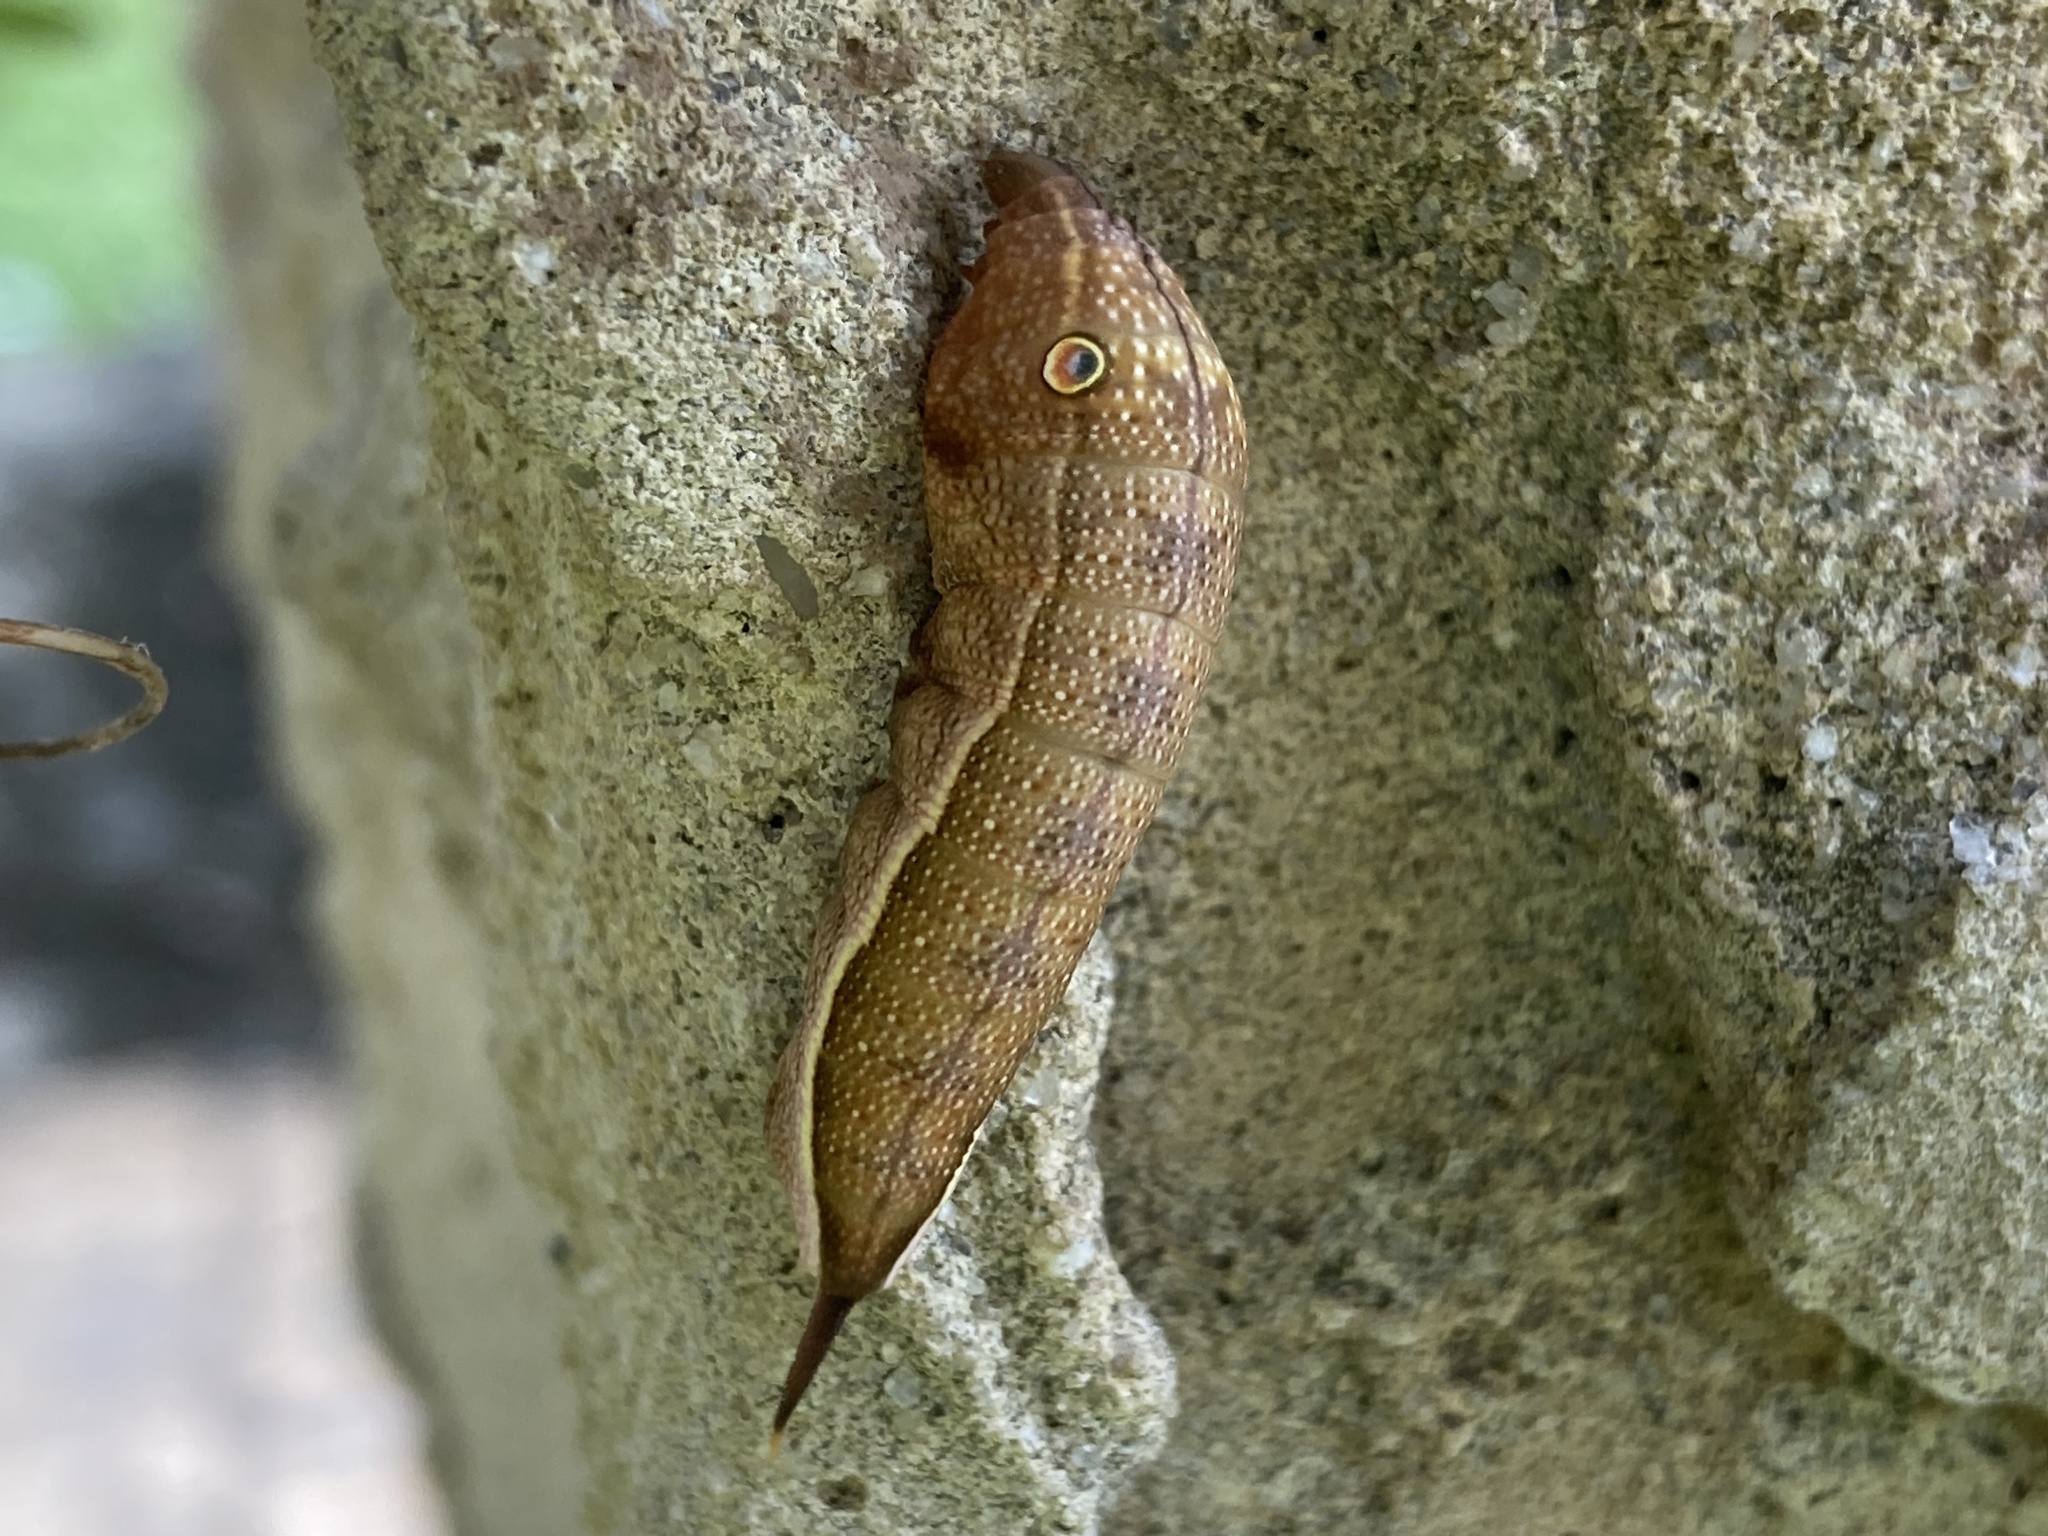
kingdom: Animalia
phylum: Arthropoda
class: Insecta
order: Lepidoptera
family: Sphingidae
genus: Xylophanes
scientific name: Xylophanes pluto
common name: Pluto sphinx
